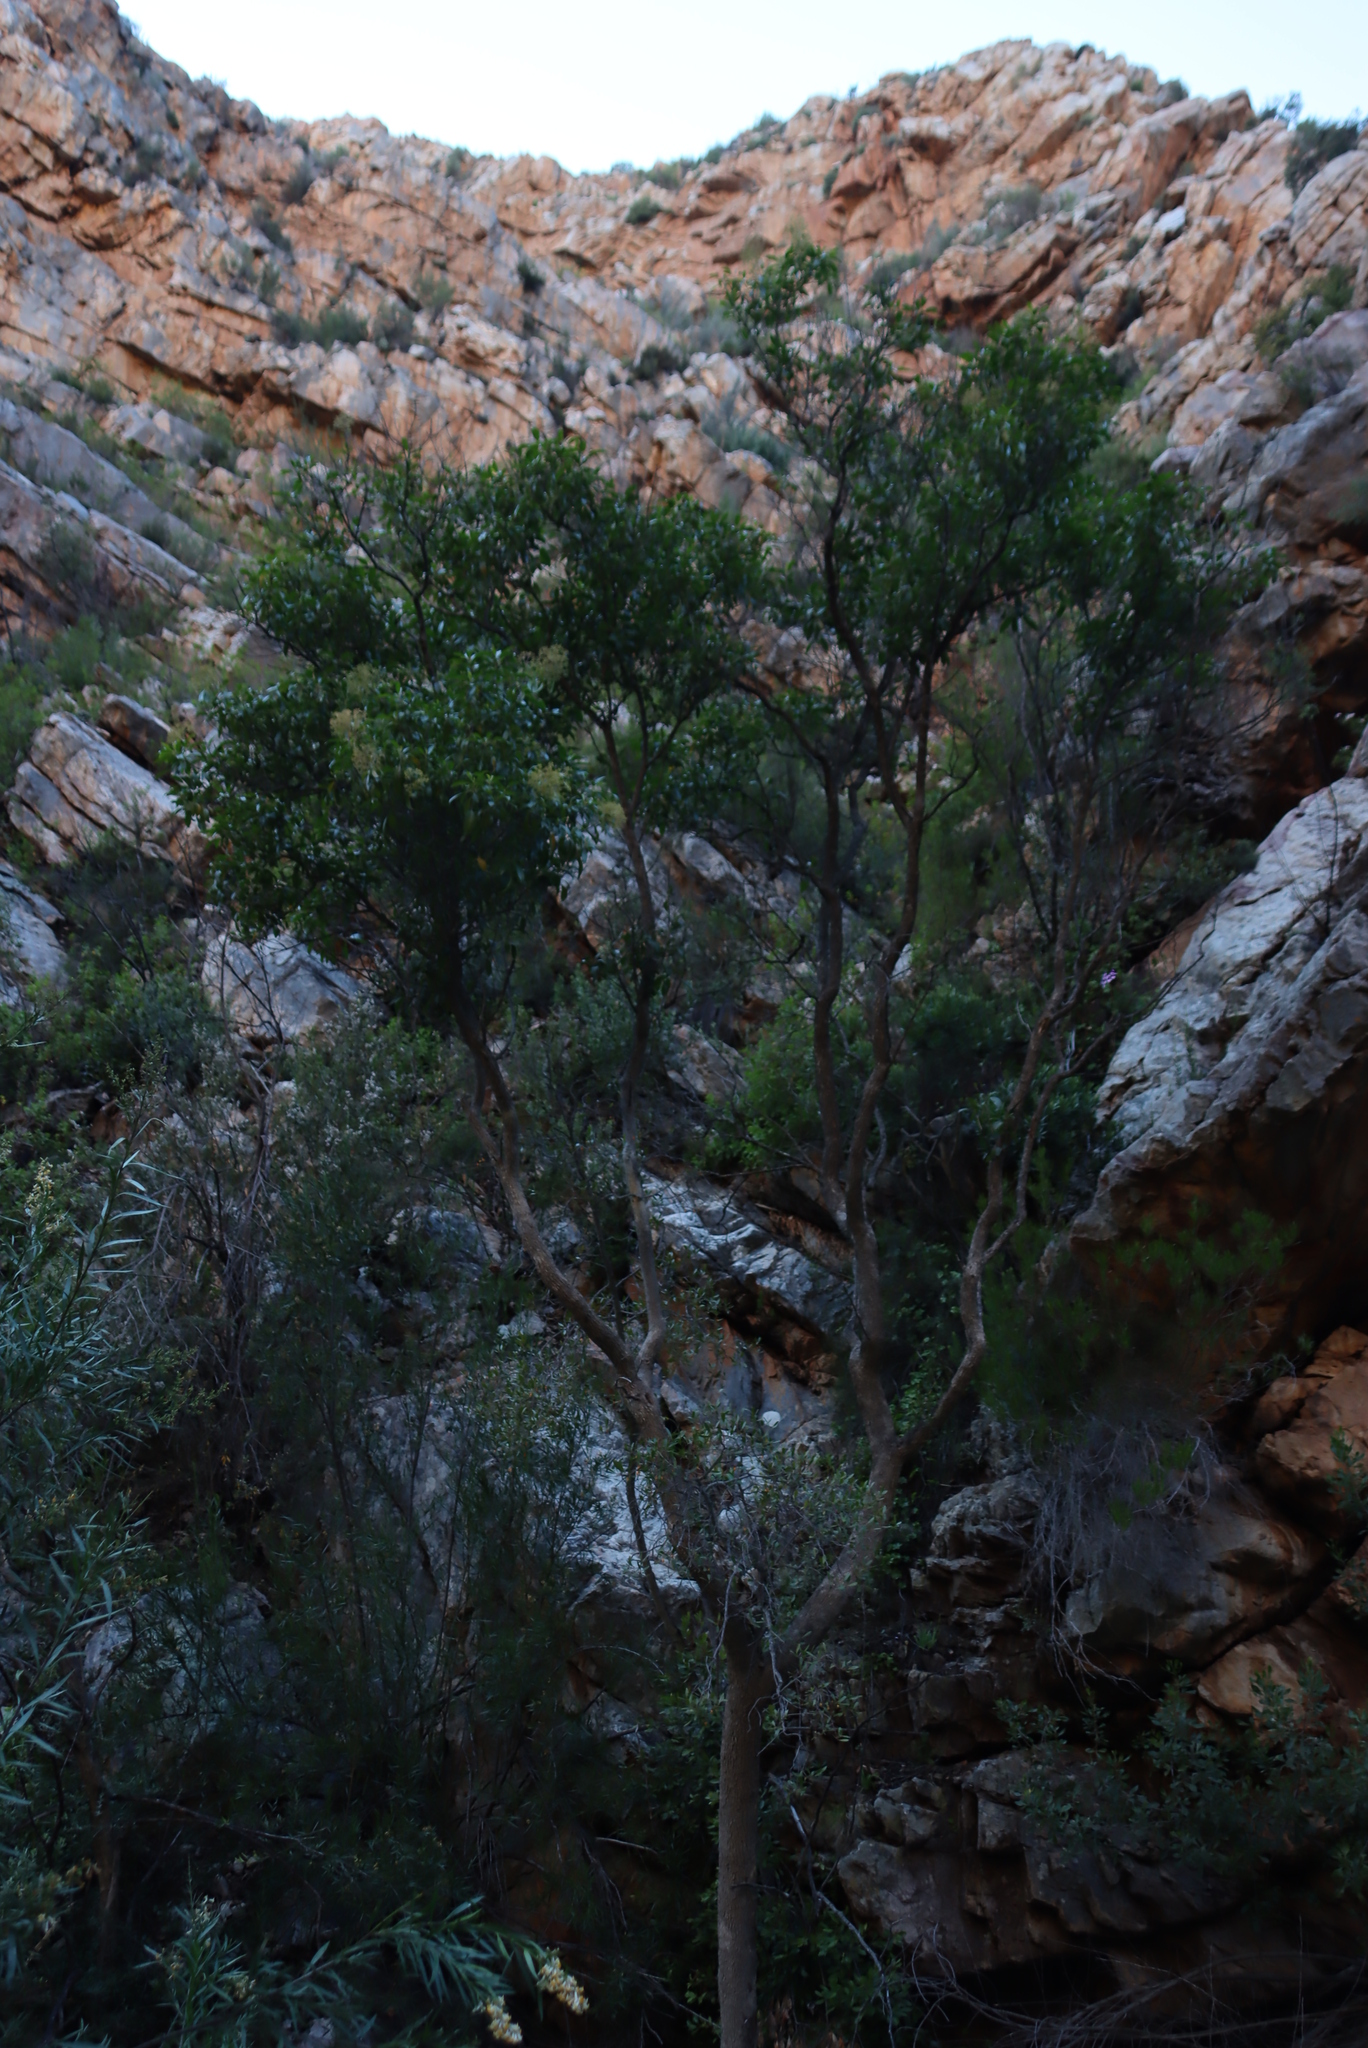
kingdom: Plantae
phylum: Tracheophyta
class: Magnoliopsida
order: Lamiales
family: Stilbaceae
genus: Nuxia
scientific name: Nuxia floribunda
